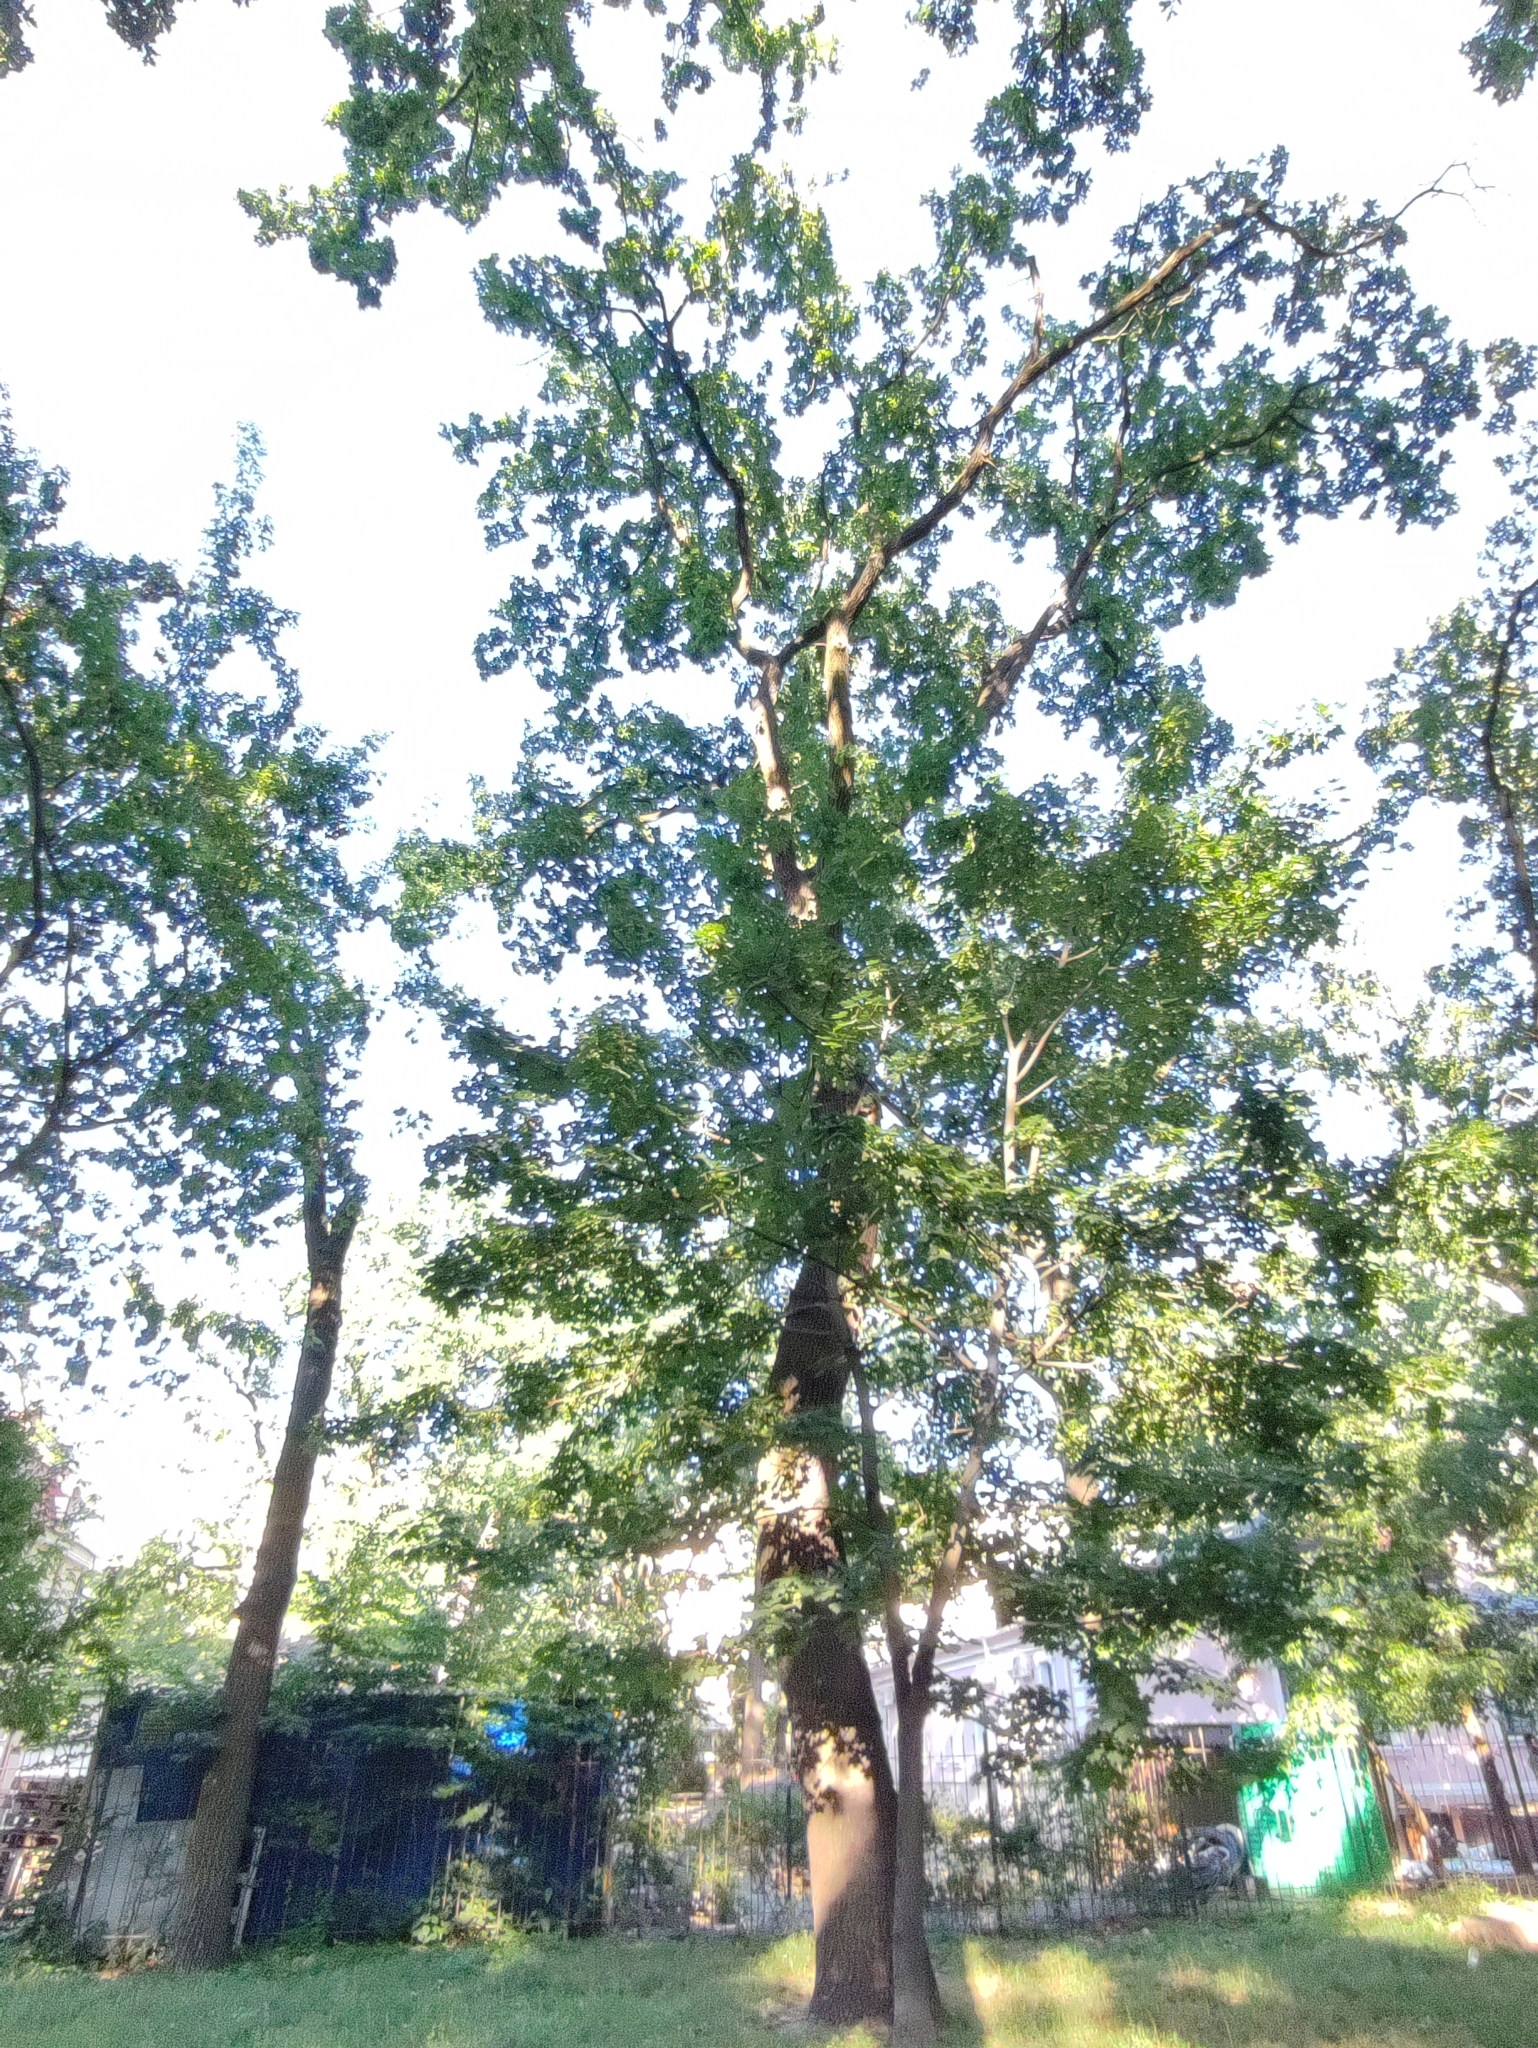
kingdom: Plantae
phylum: Tracheophyta
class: Magnoliopsida
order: Fagales
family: Fagaceae
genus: Quercus
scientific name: Quercus robur
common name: Pedunculate oak
